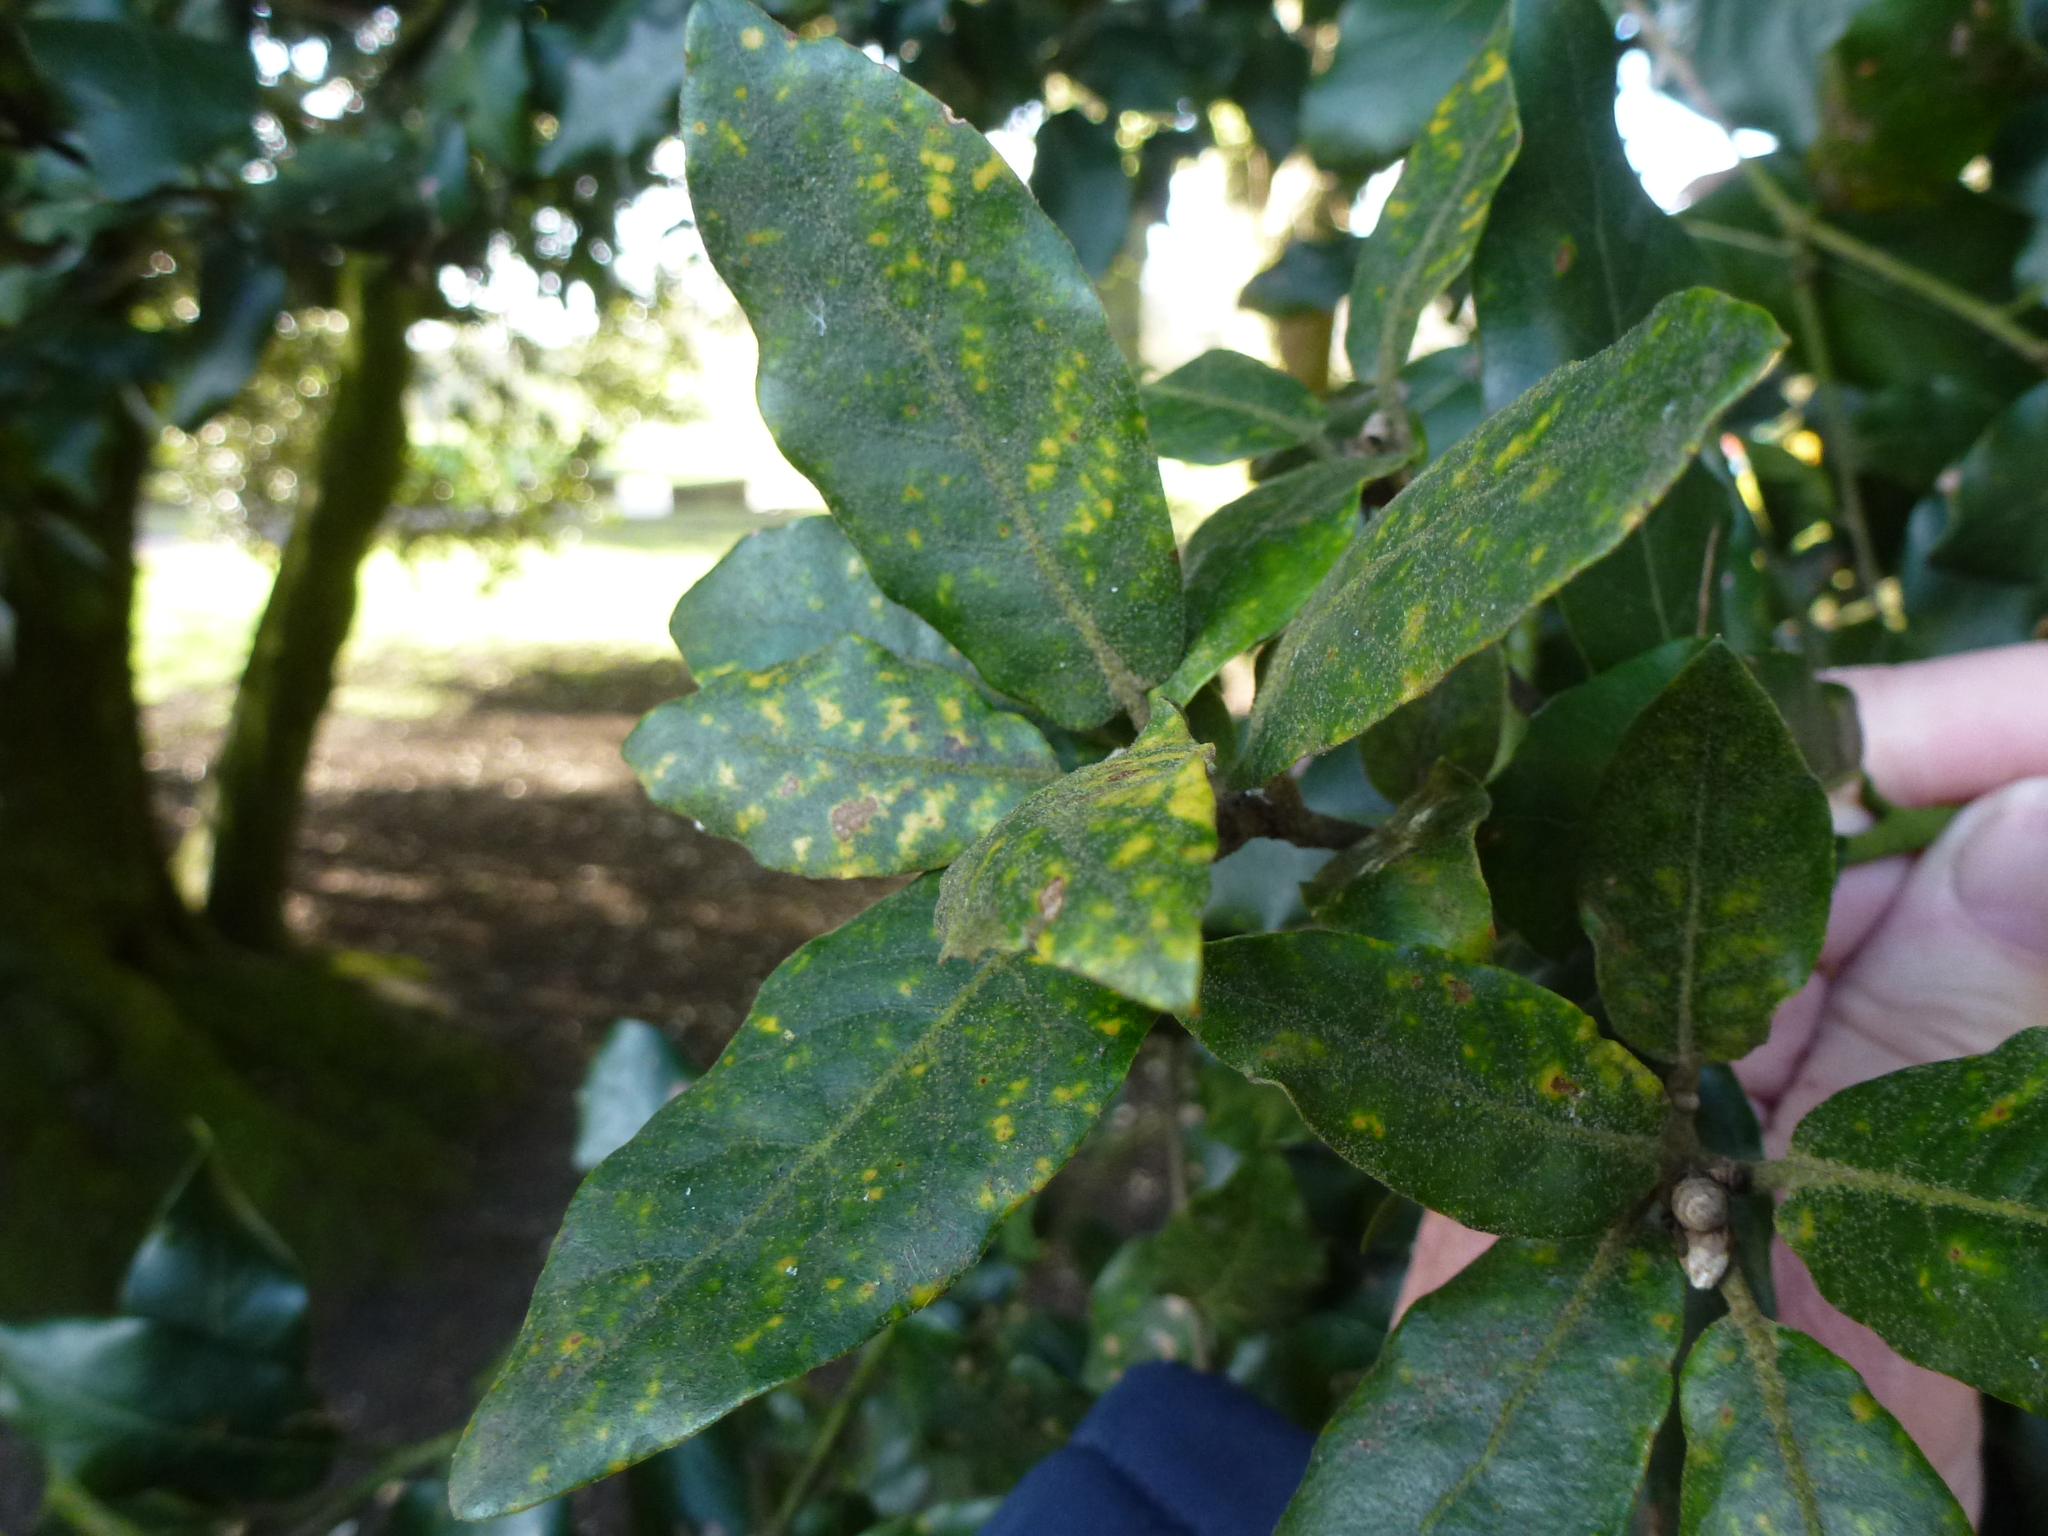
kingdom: Plantae
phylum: Tracheophyta
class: Magnoliopsida
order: Fagales
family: Fagaceae
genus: Quercus
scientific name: Quercus ilex
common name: Evergreen oak
